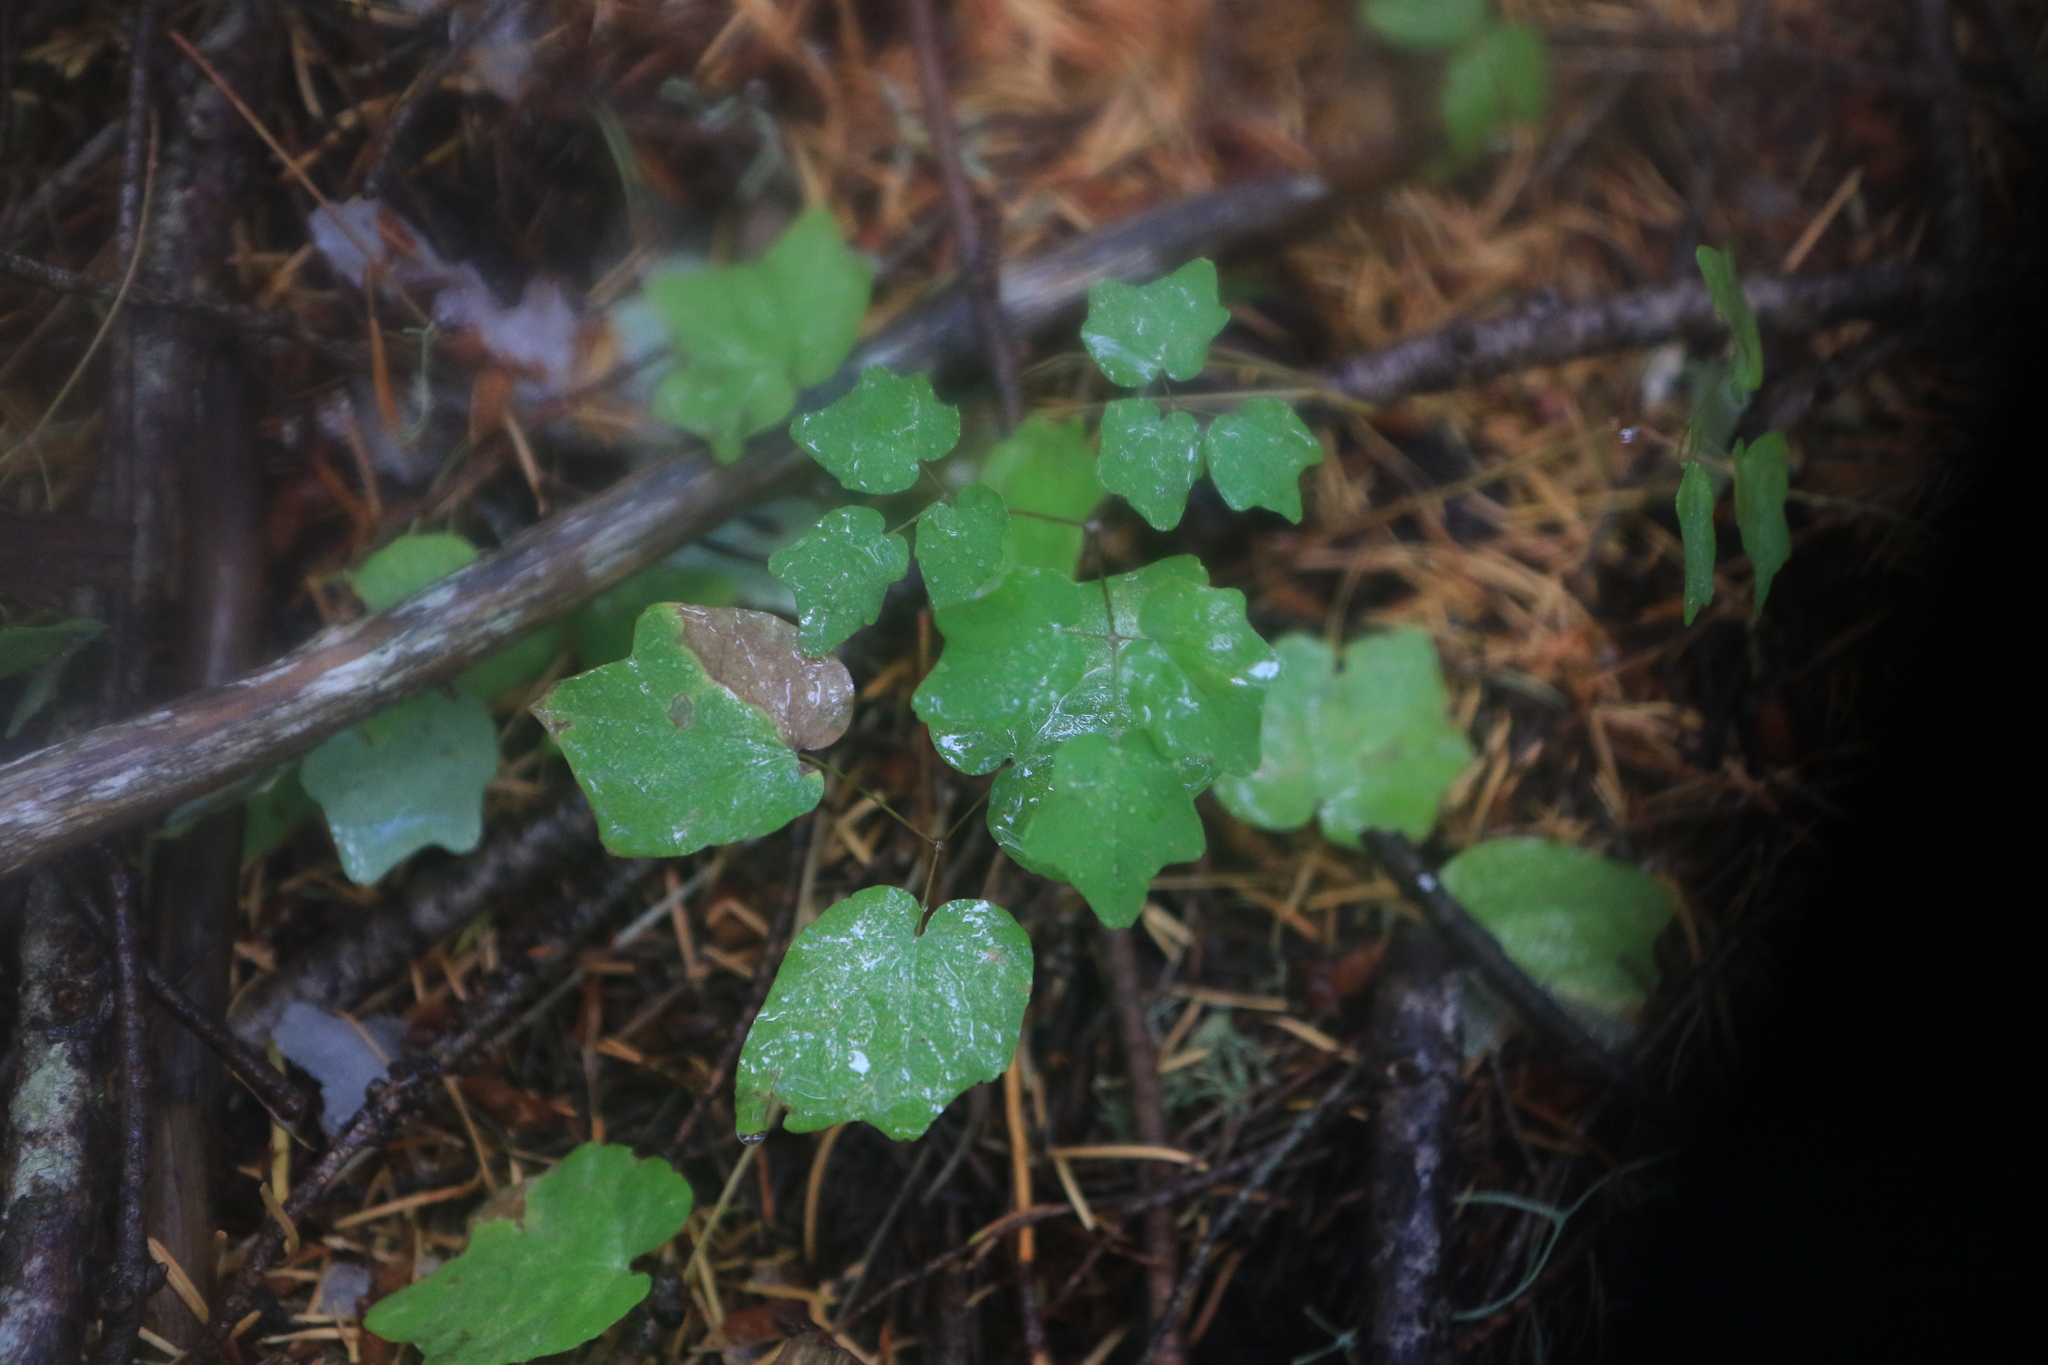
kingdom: Plantae
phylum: Tracheophyta
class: Magnoliopsida
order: Ranunculales
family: Berberidaceae
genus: Vancouveria
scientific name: Vancouveria hexandra
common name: Northern inside-out-flower
